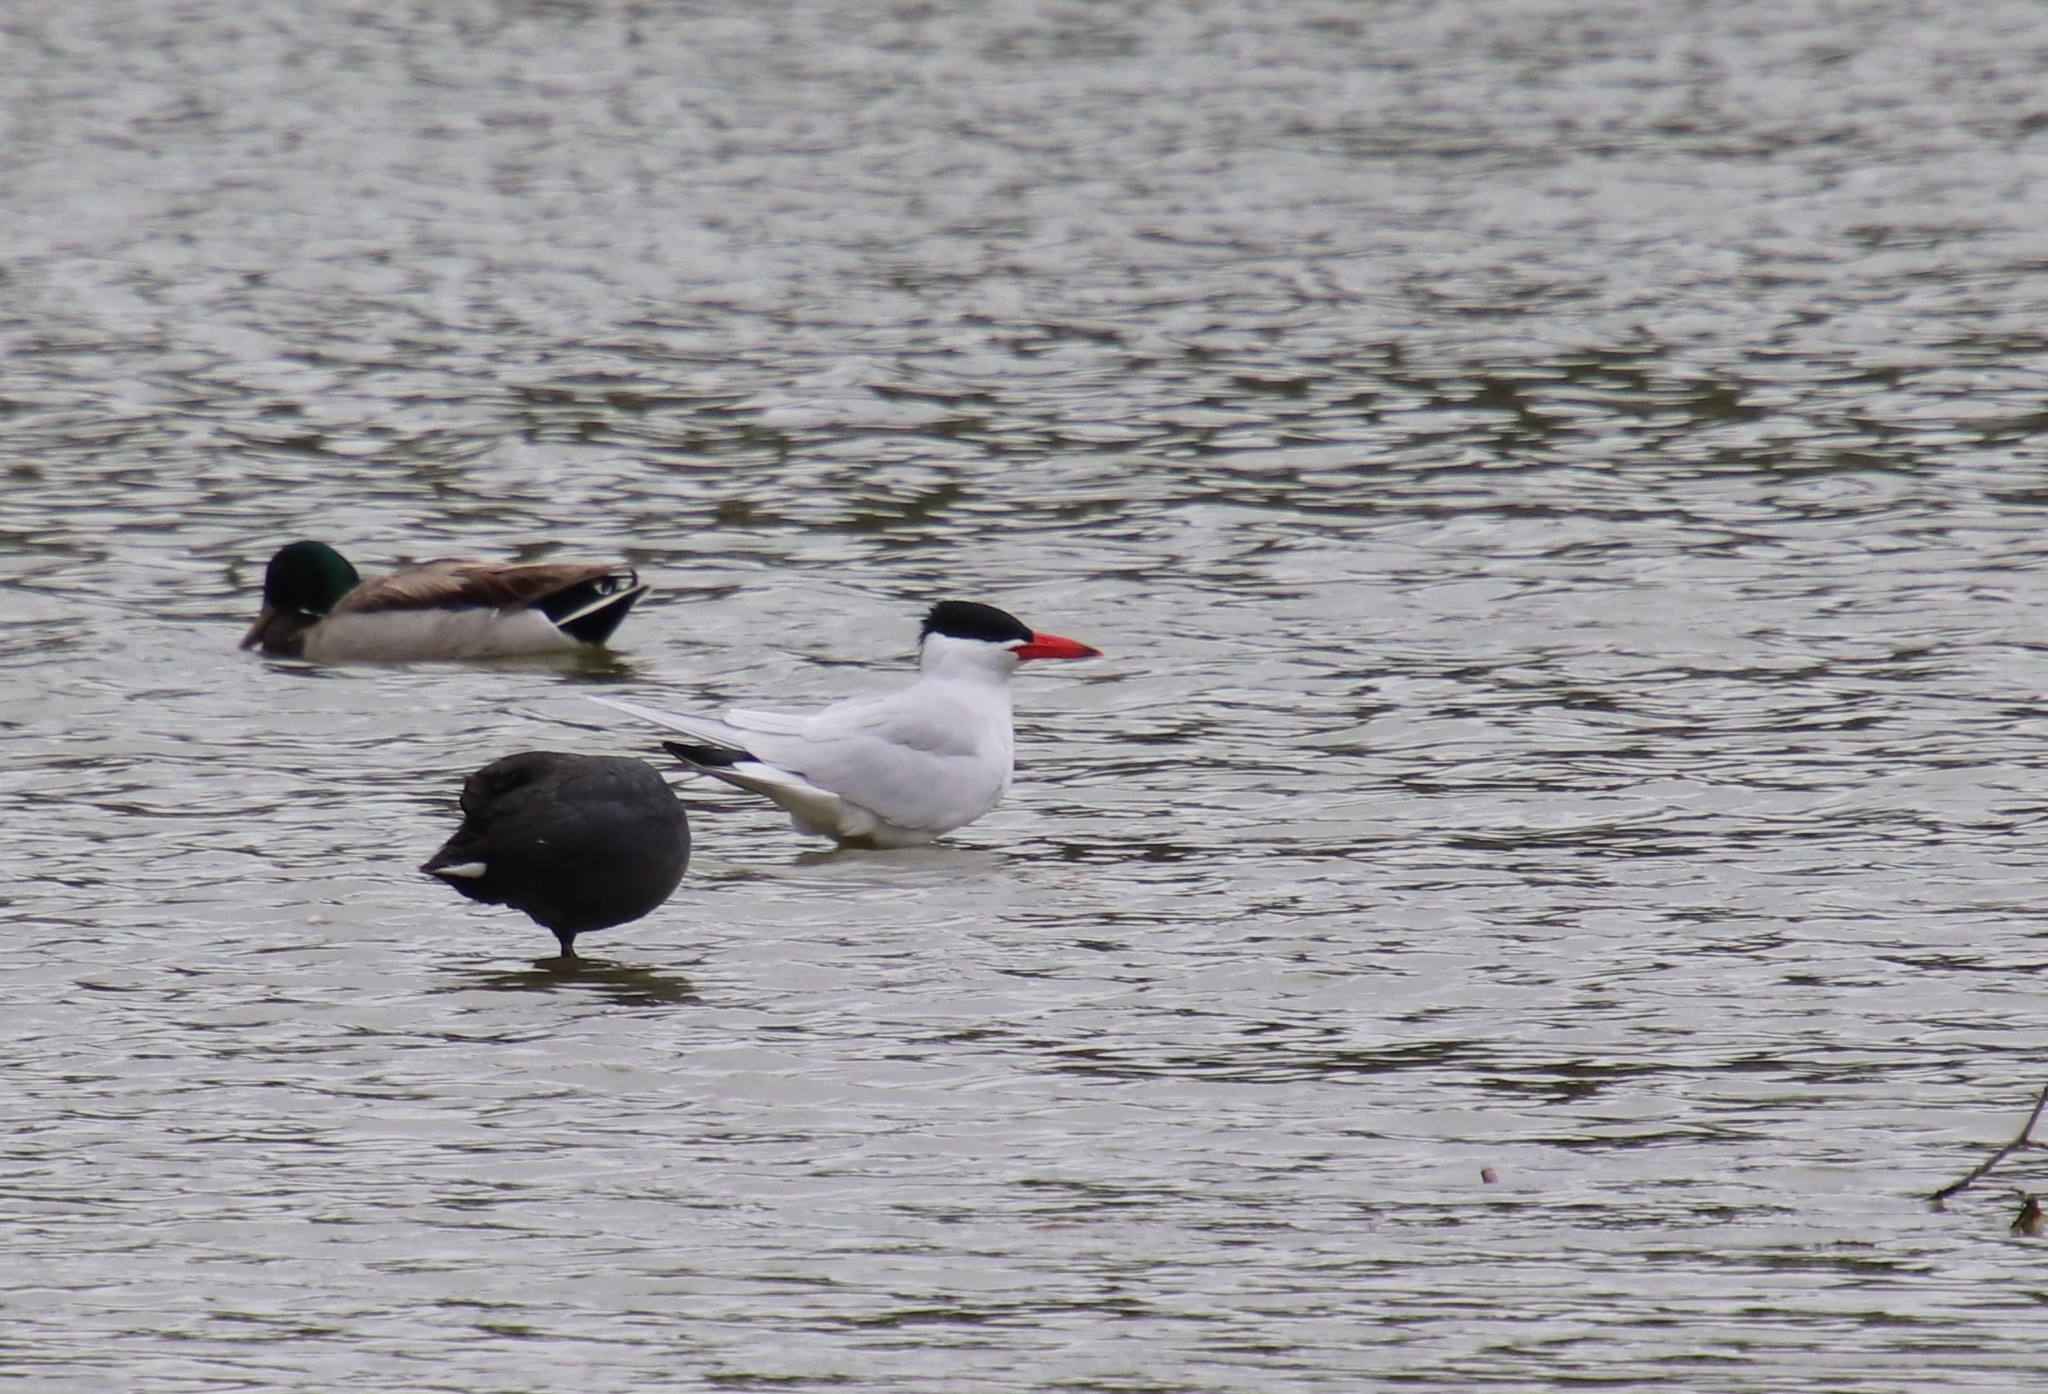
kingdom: Animalia
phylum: Chordata
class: Aves
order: Charadriiformes
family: Laridae
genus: Hydroprogne
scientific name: Hydroprogne caspia
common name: Caspian tern
